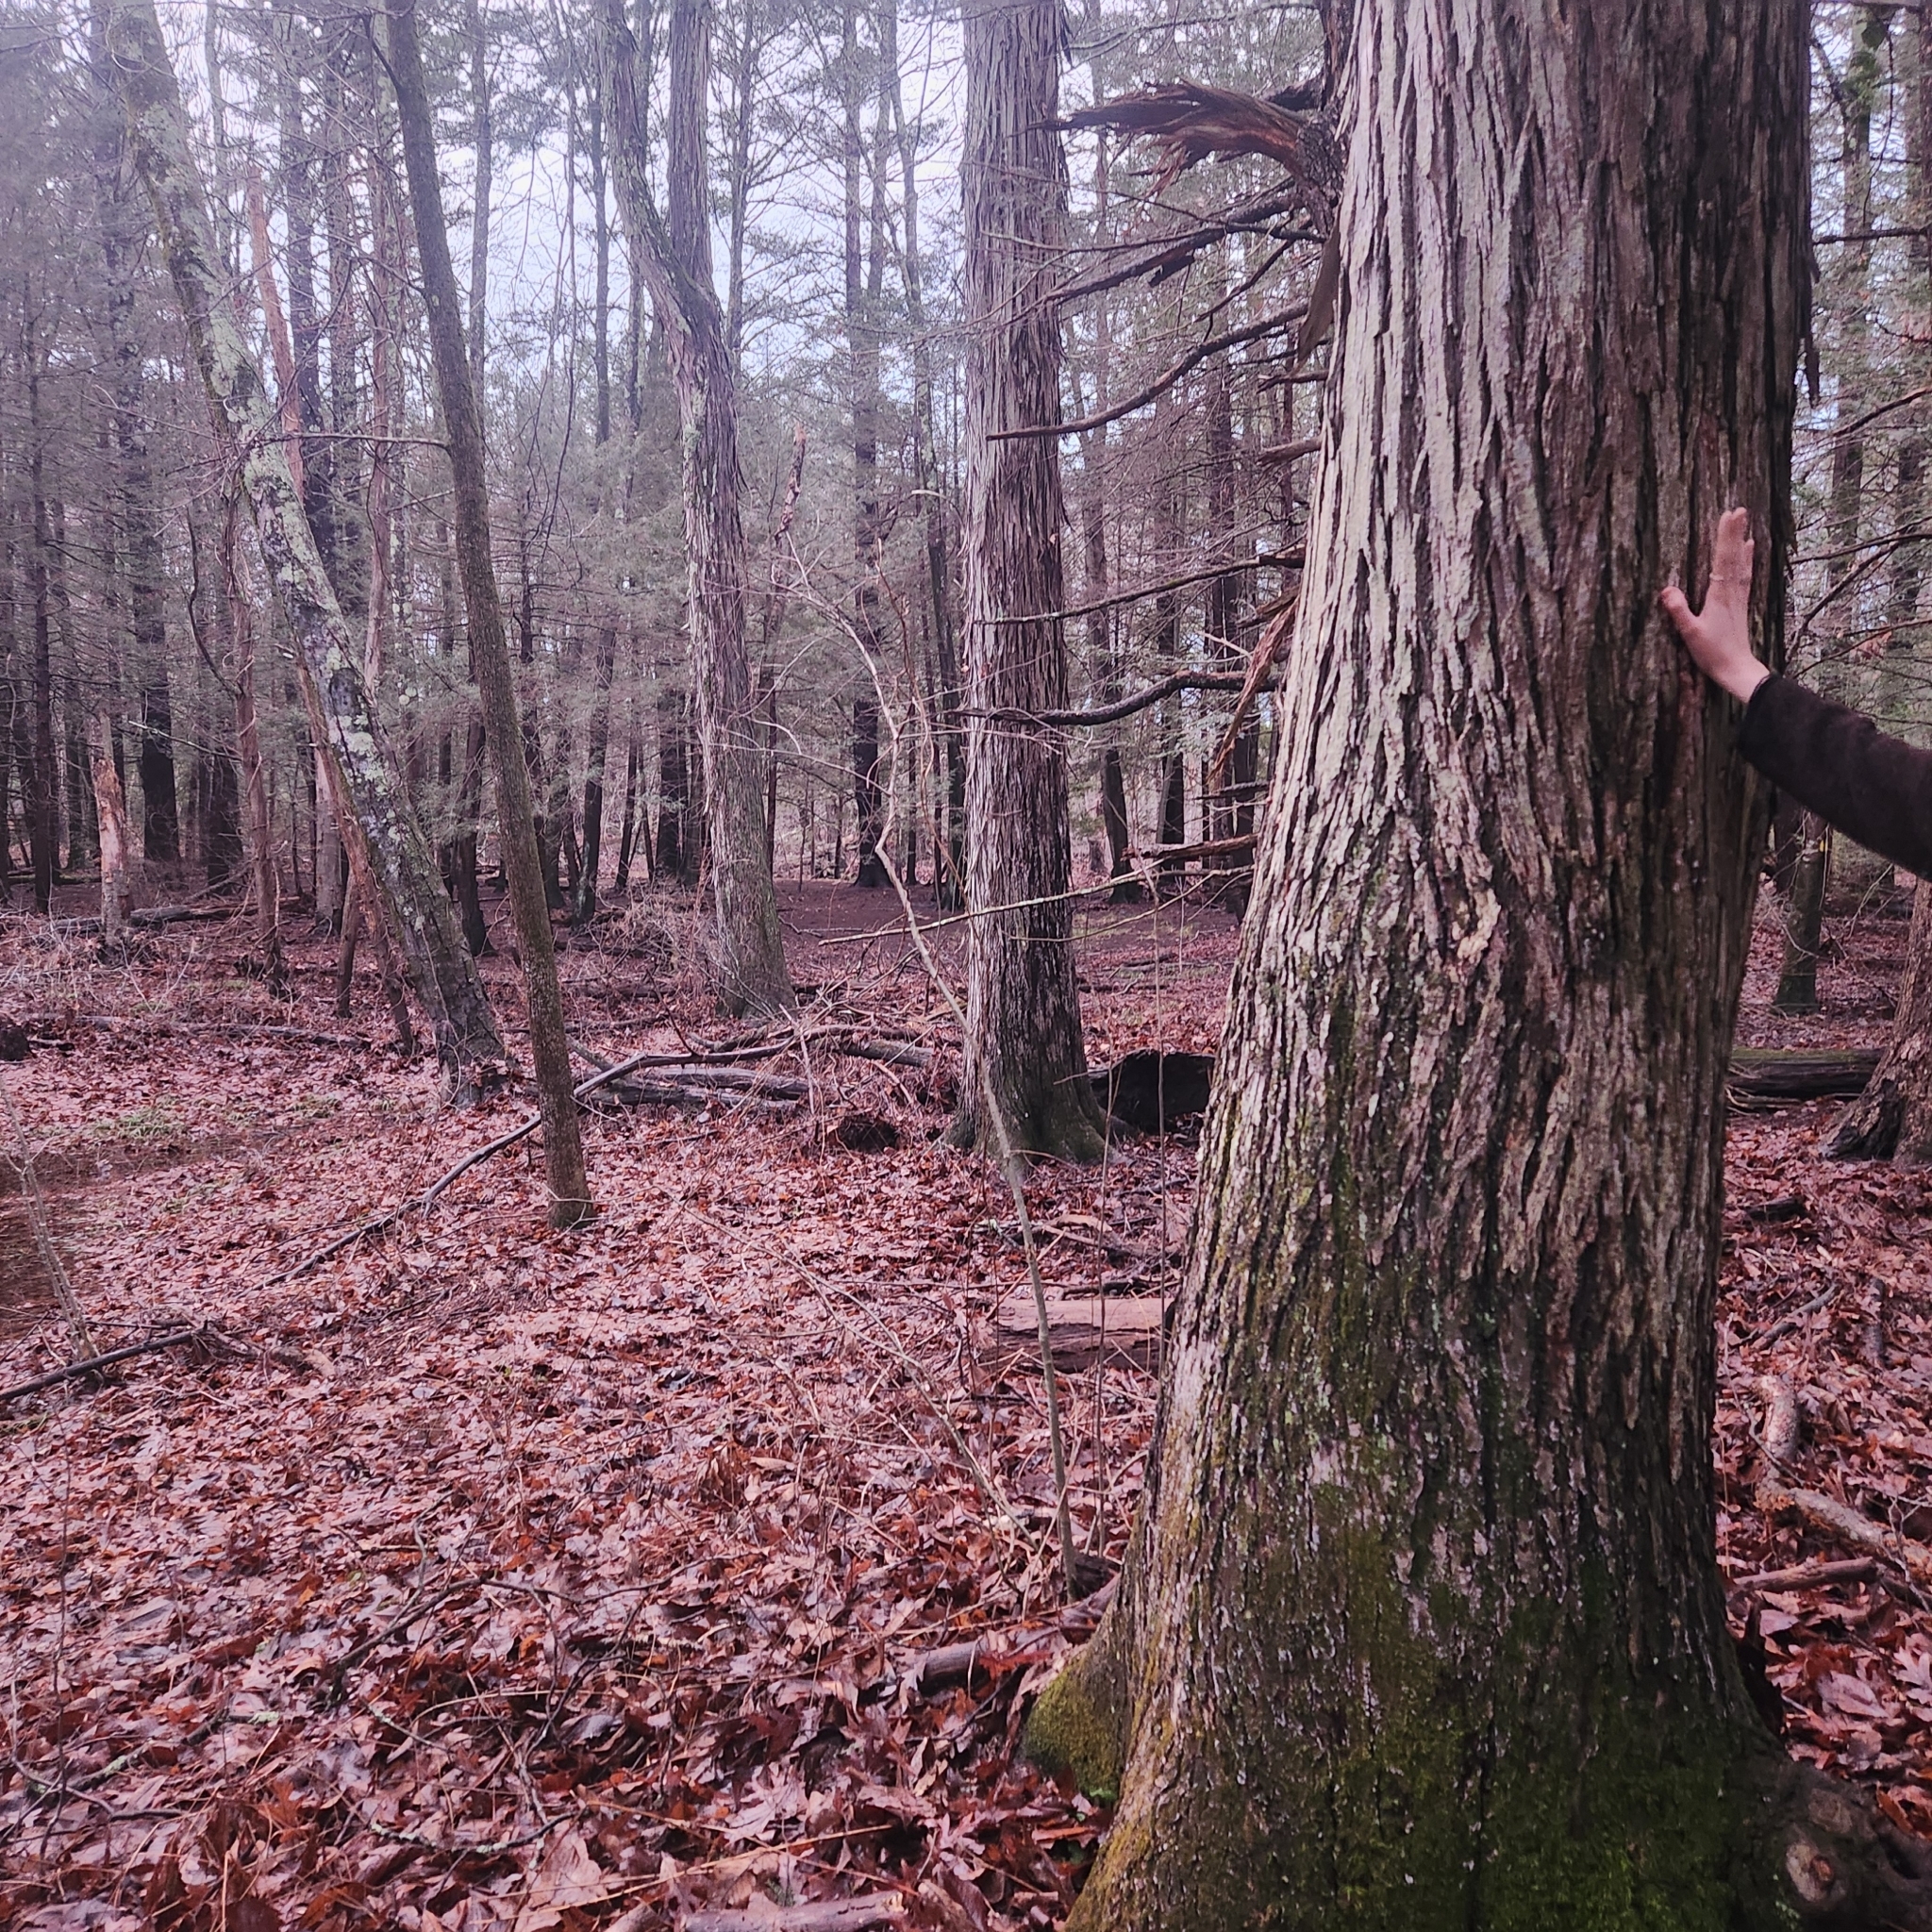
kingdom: Plantae
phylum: Tracheophyta
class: Magnoliopsida
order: Fagales
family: Juglandaceae
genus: Carya
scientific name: Carya ovata
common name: Shagbark hickory
